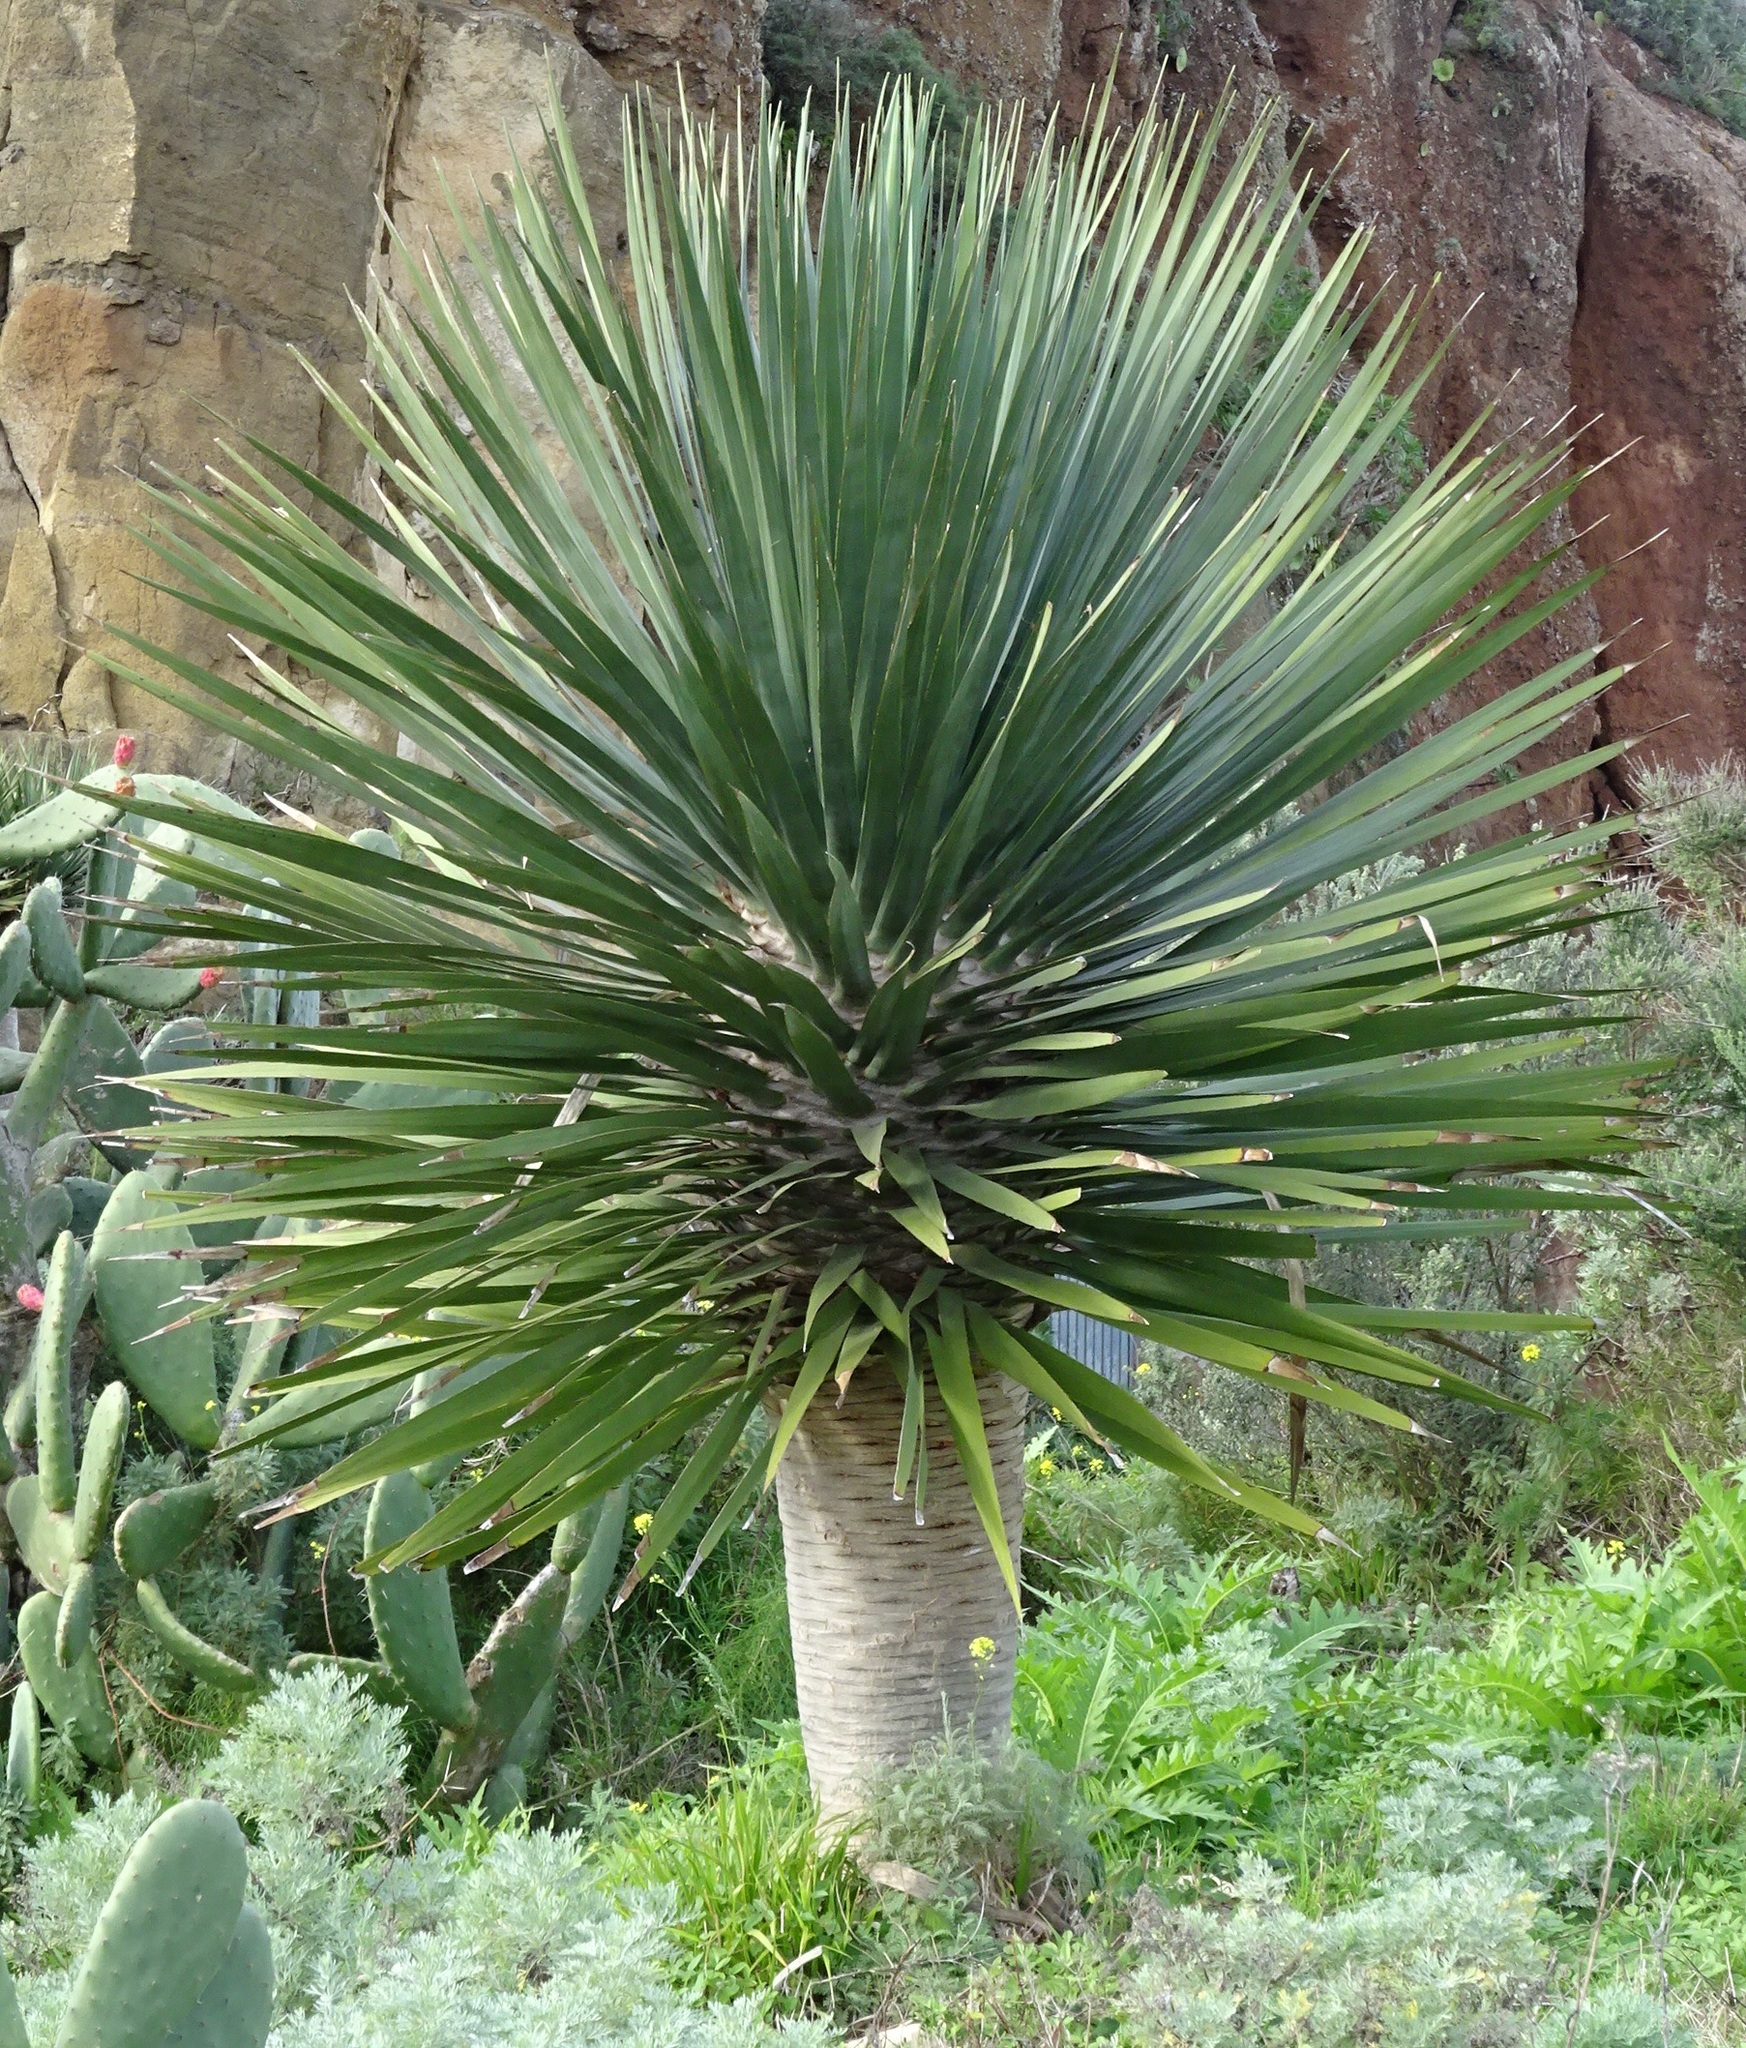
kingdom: Plantae
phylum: Tracheophyta
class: Liliopsida
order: Asparagales
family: Asparagaceae
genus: Dracaena
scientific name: Dracaena draco
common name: Canary island dragon tree
